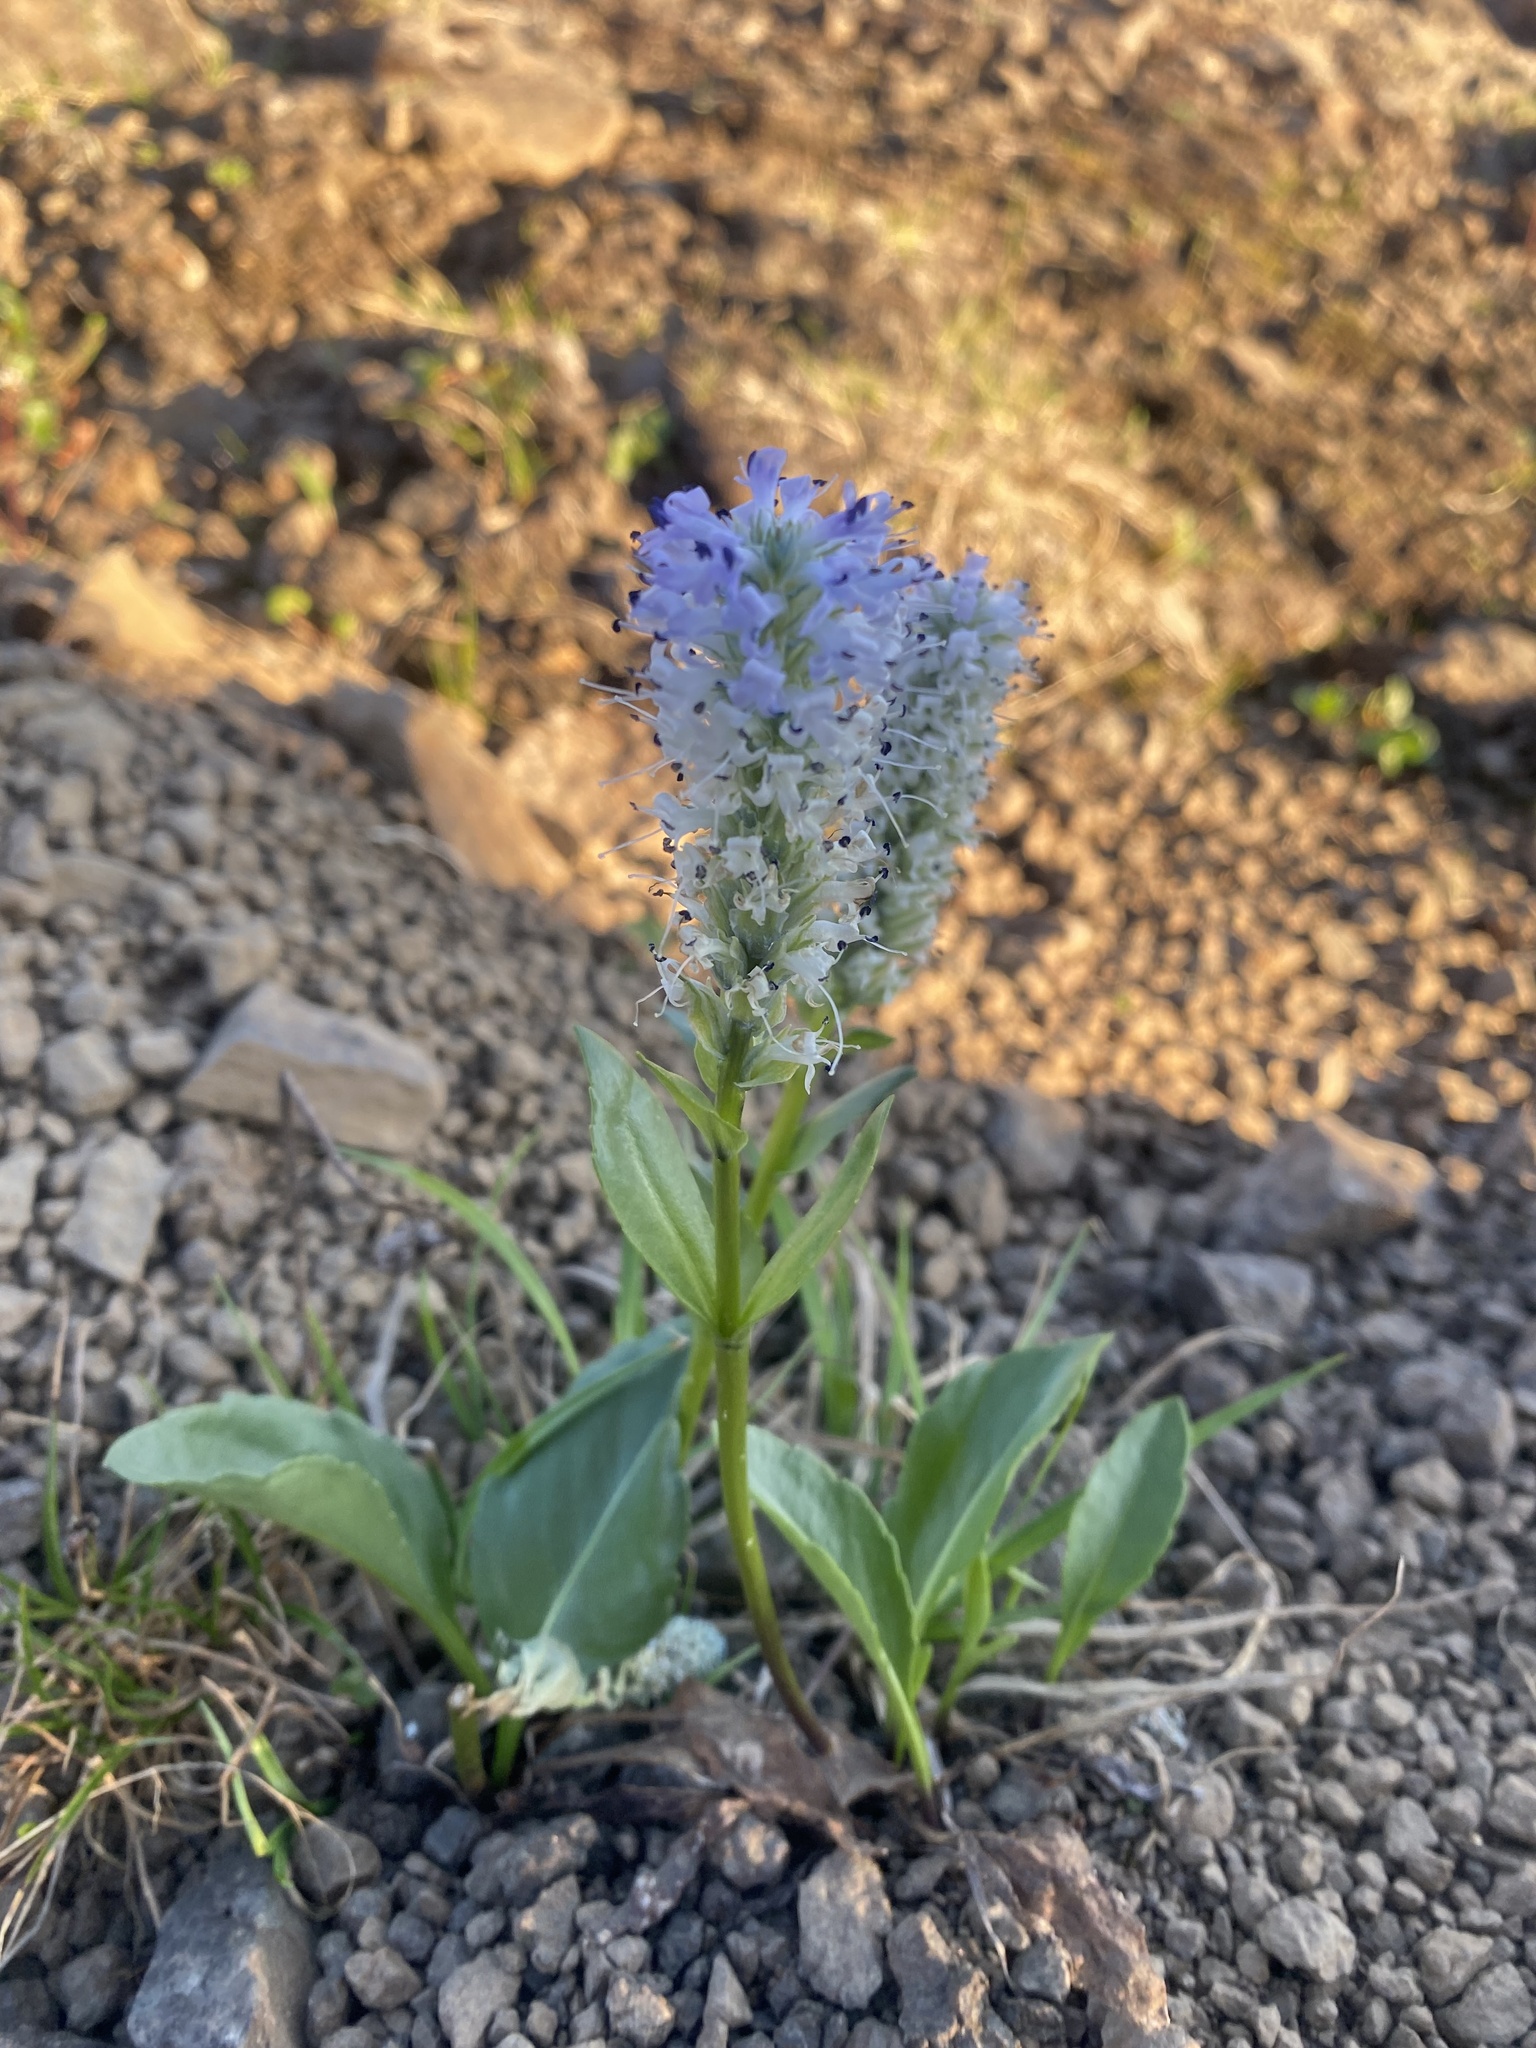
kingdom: Plantae
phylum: Tracheophyta
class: Magnoliopsida
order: Lamiales
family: Plantaginaceae
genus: Lagotis
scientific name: Lagotis glauca
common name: Glaucous weaselsnout
